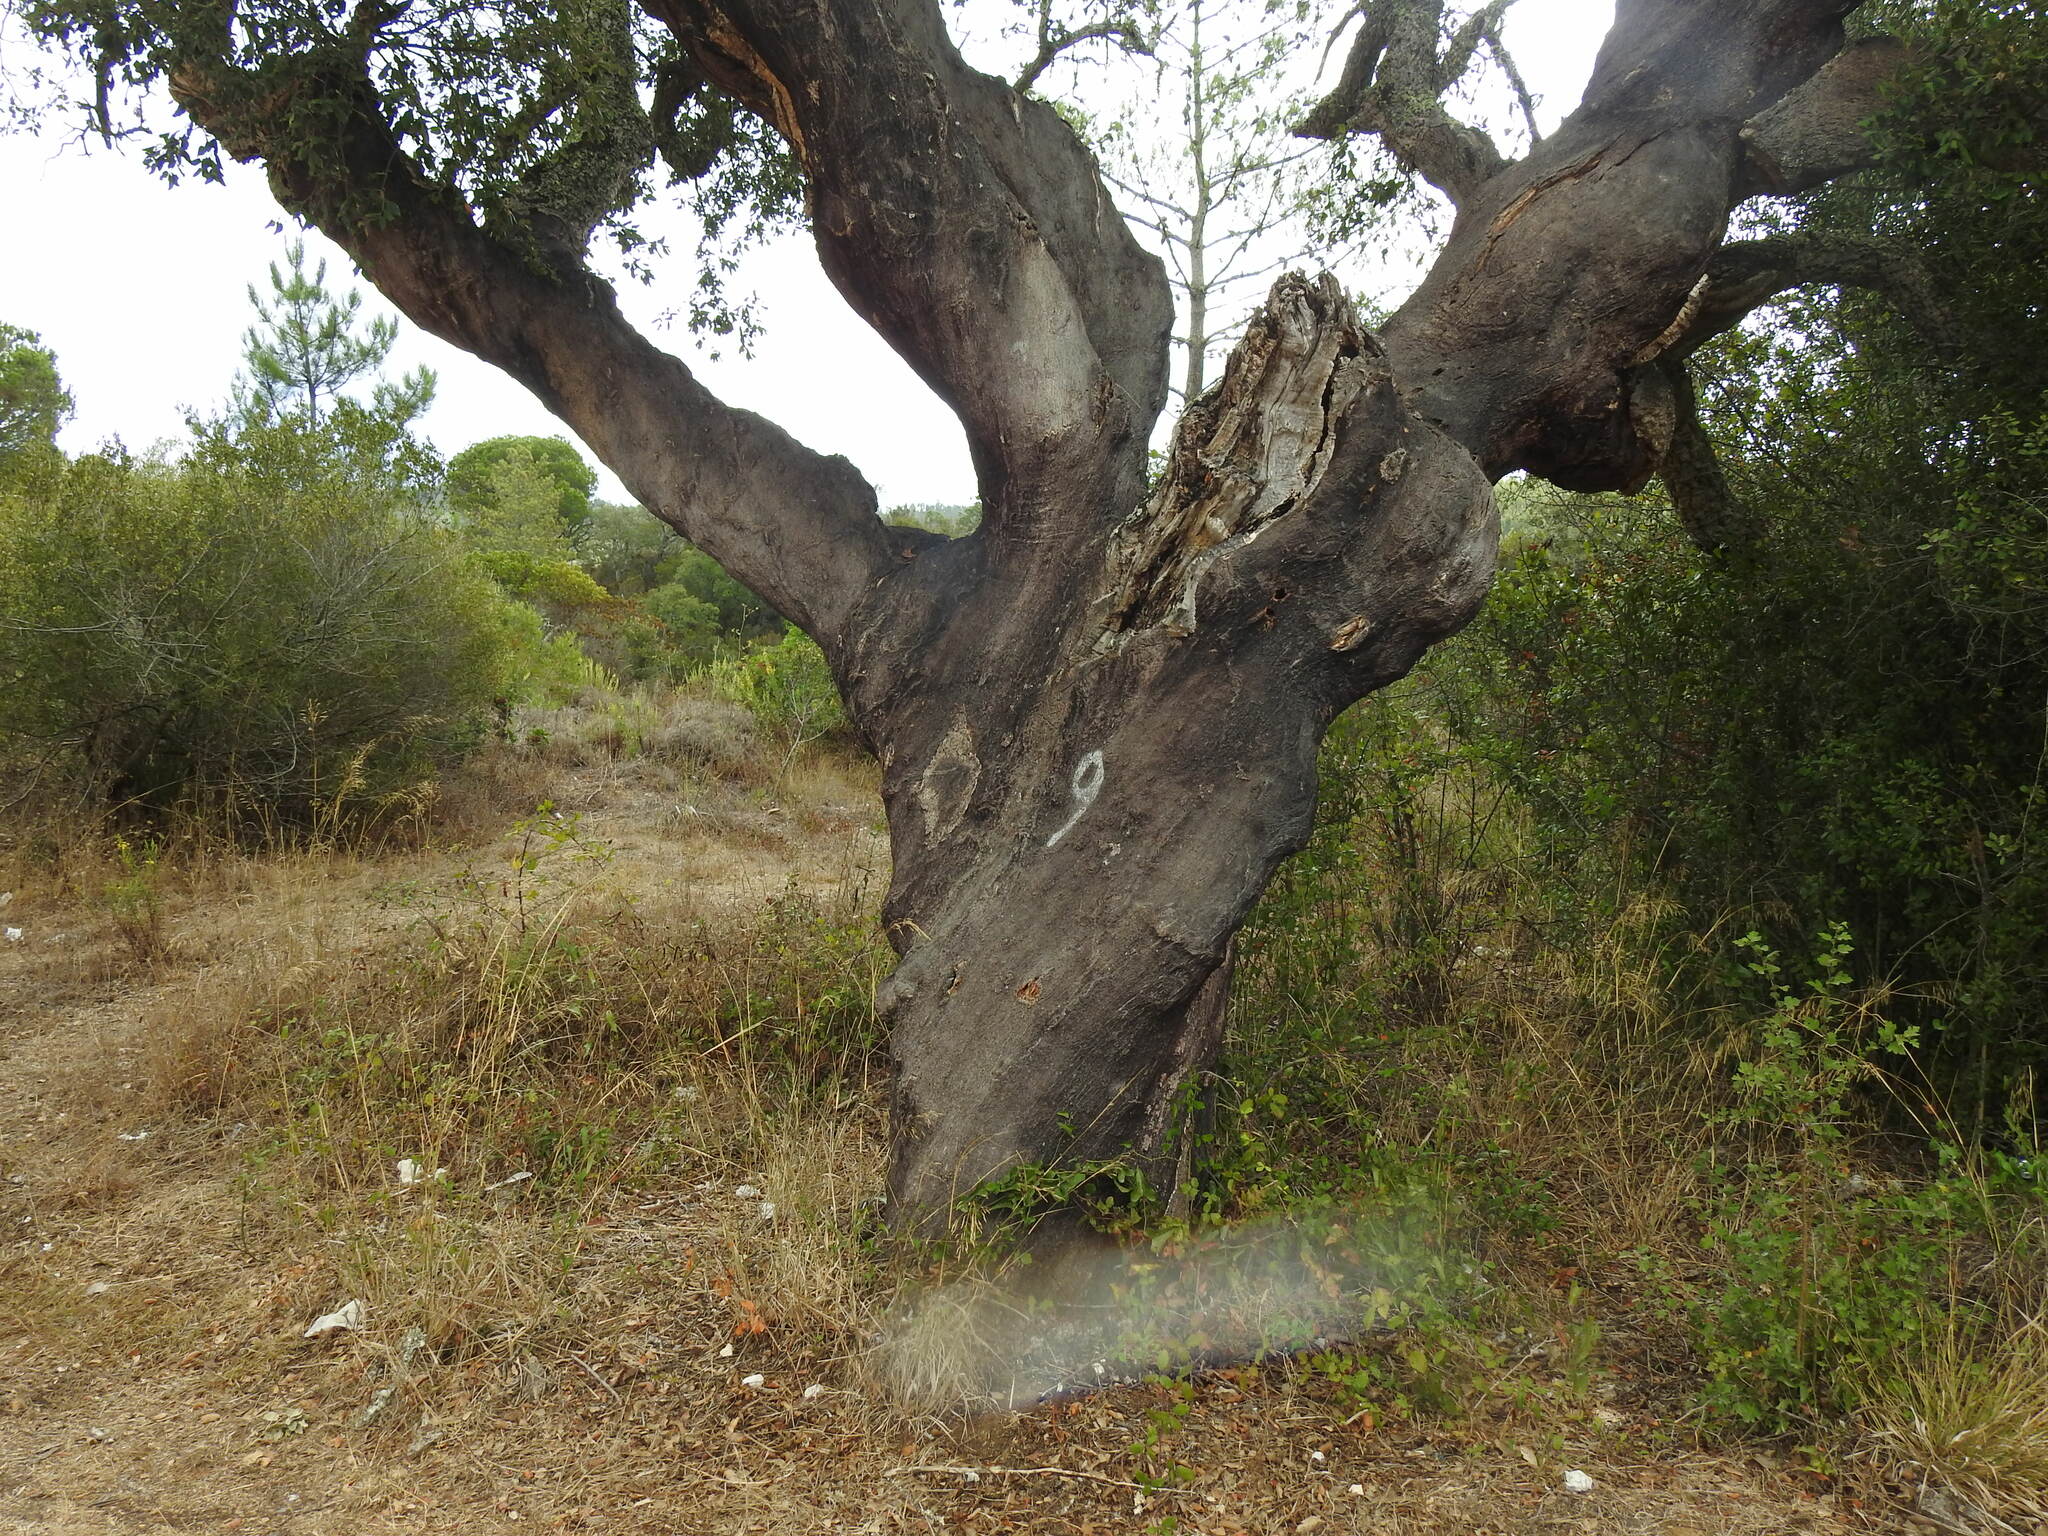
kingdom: Plantae
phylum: Tracheophyta
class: Magnoliopsida
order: Fagales
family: Fagaceae
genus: Quercus
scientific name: Quercus suber
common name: Cork oak
